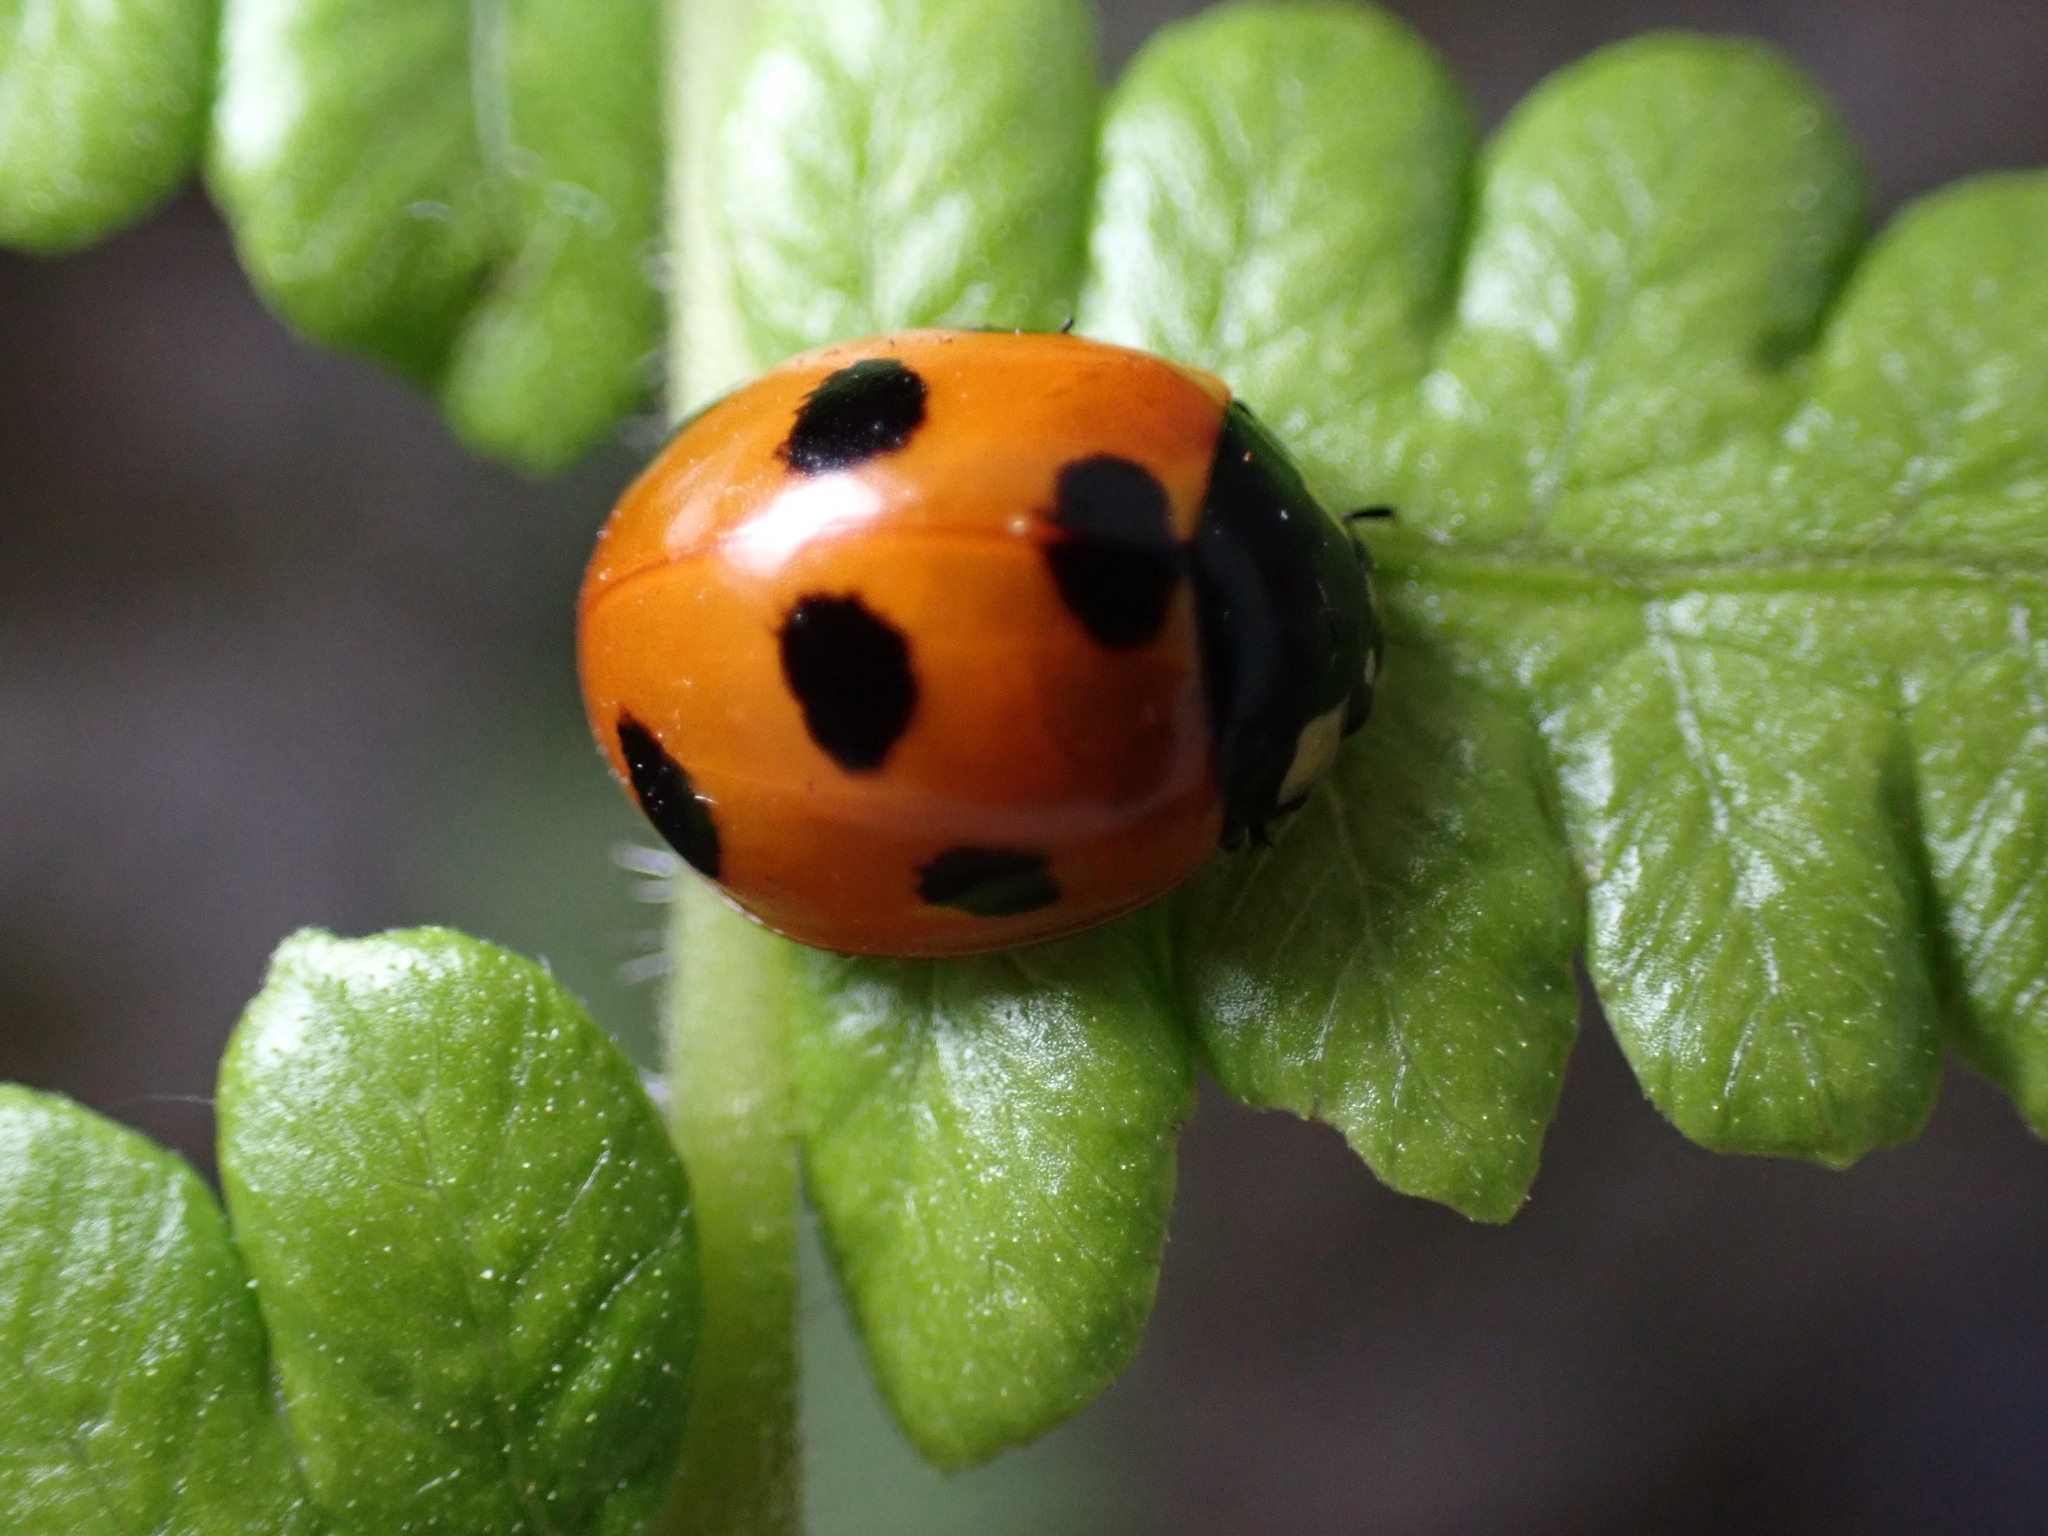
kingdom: Animalia
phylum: Arthropoda
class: Insecta
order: Coleoptera
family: Coccinellidae
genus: Coccinella
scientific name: Coccinella septempunctata
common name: Sevenspotted lady beetle
